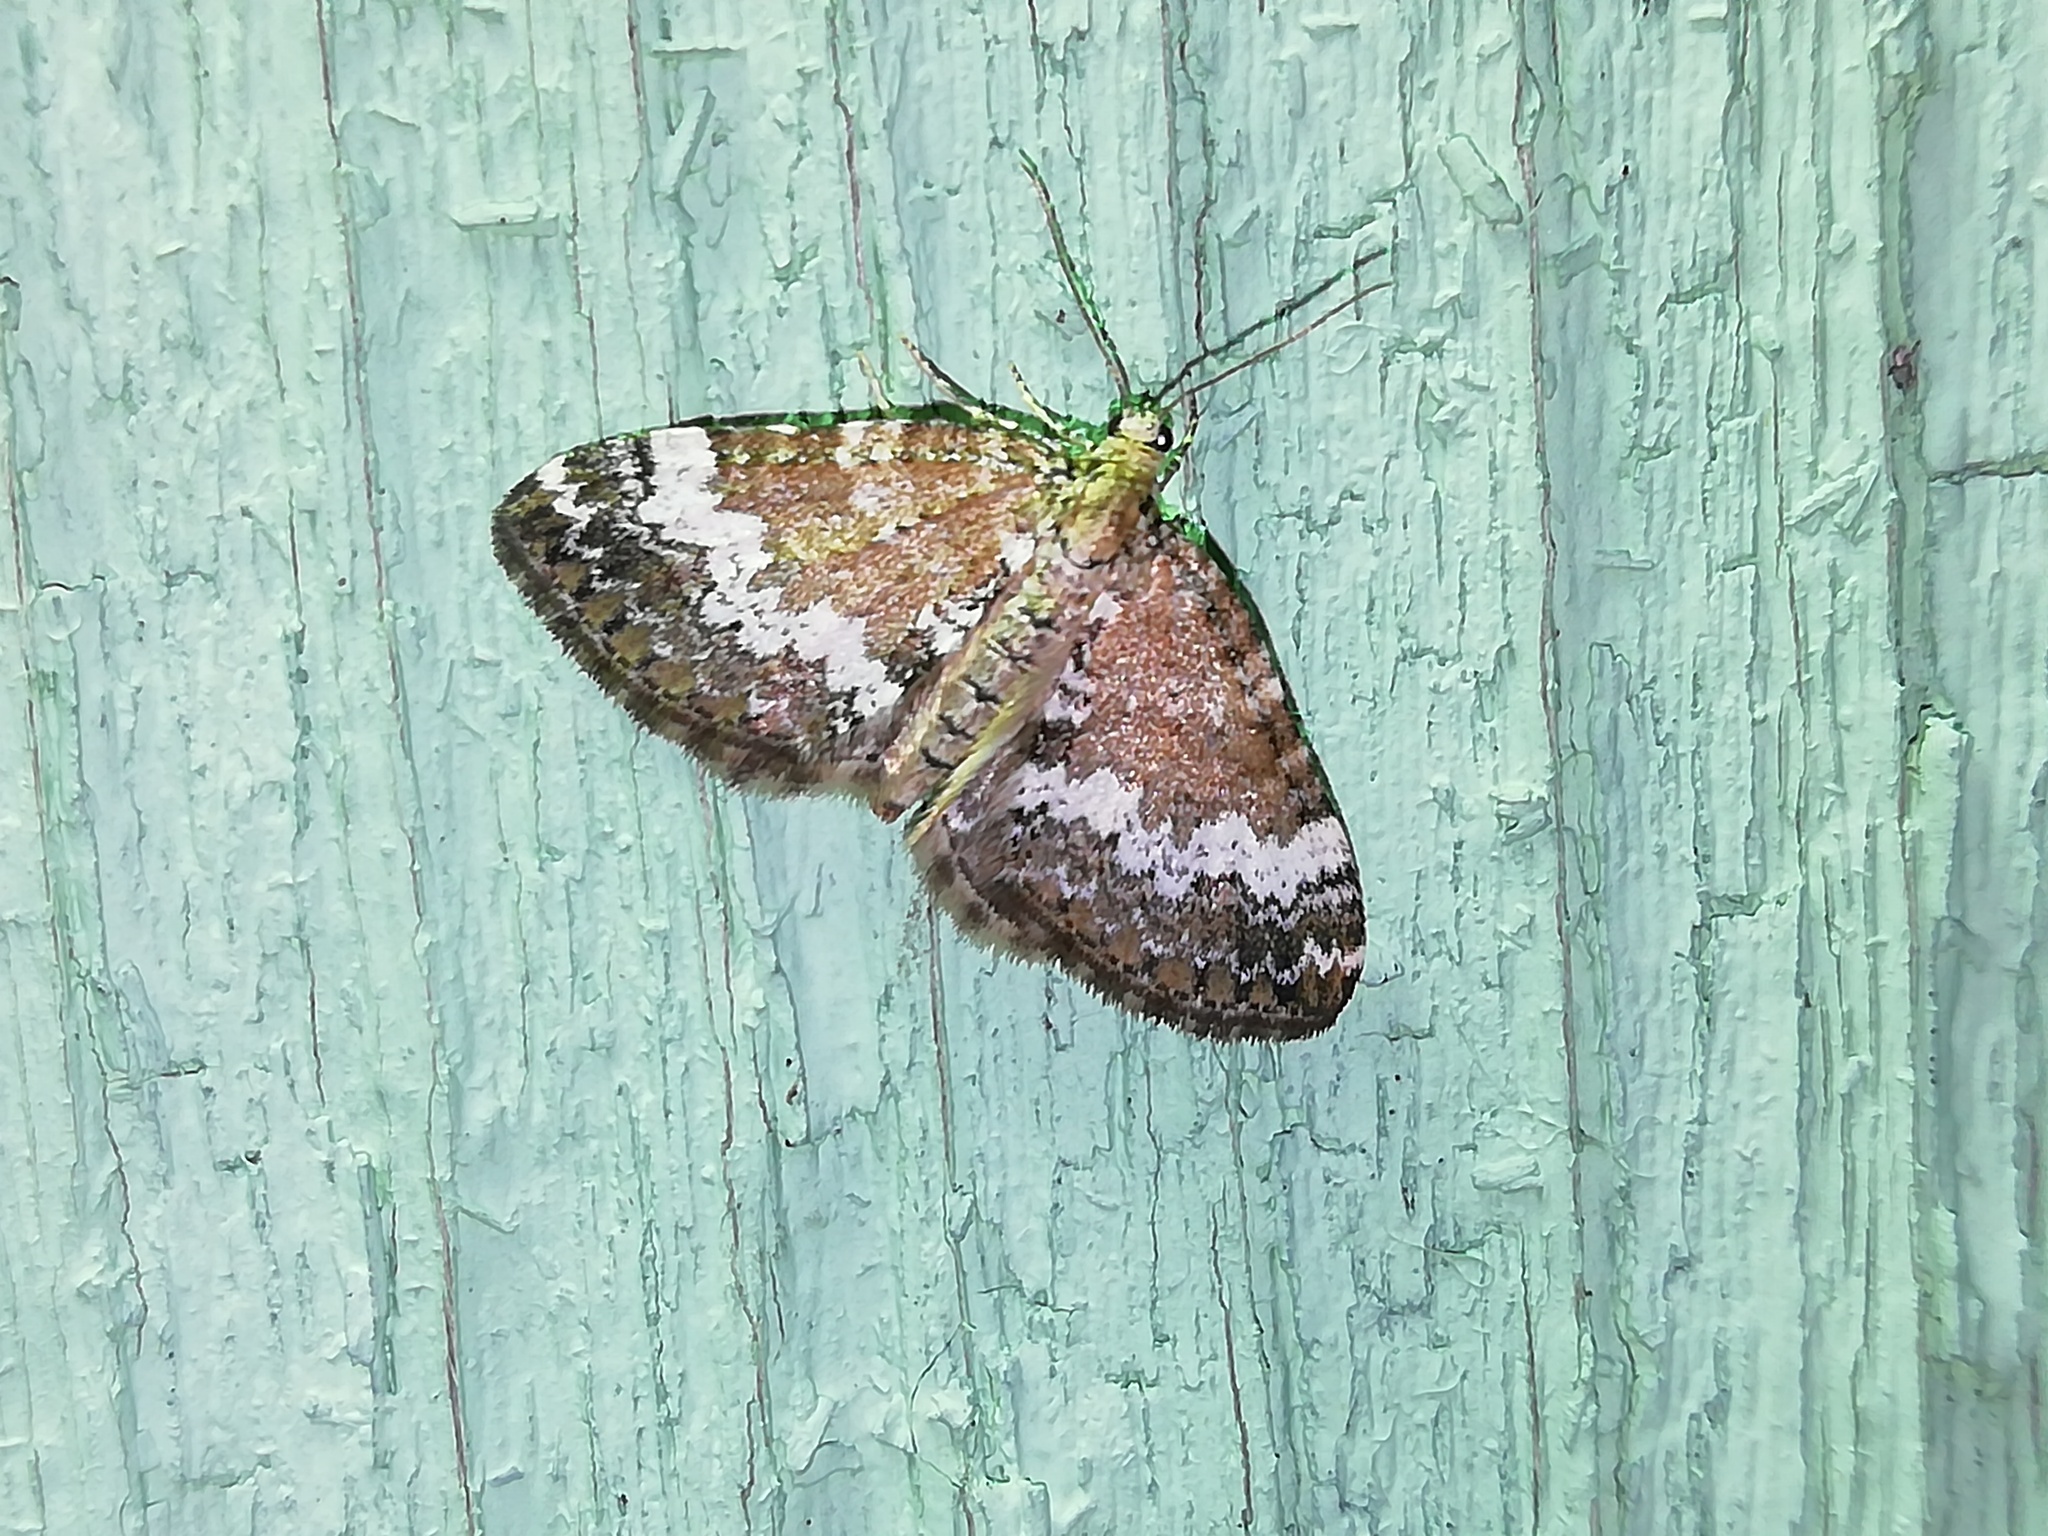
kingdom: Animalia
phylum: Arthropoda
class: Insecta
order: Lepidoptera
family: Geometridae
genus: Perizoma
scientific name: Perizoma alchemillata
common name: Small rivulet
